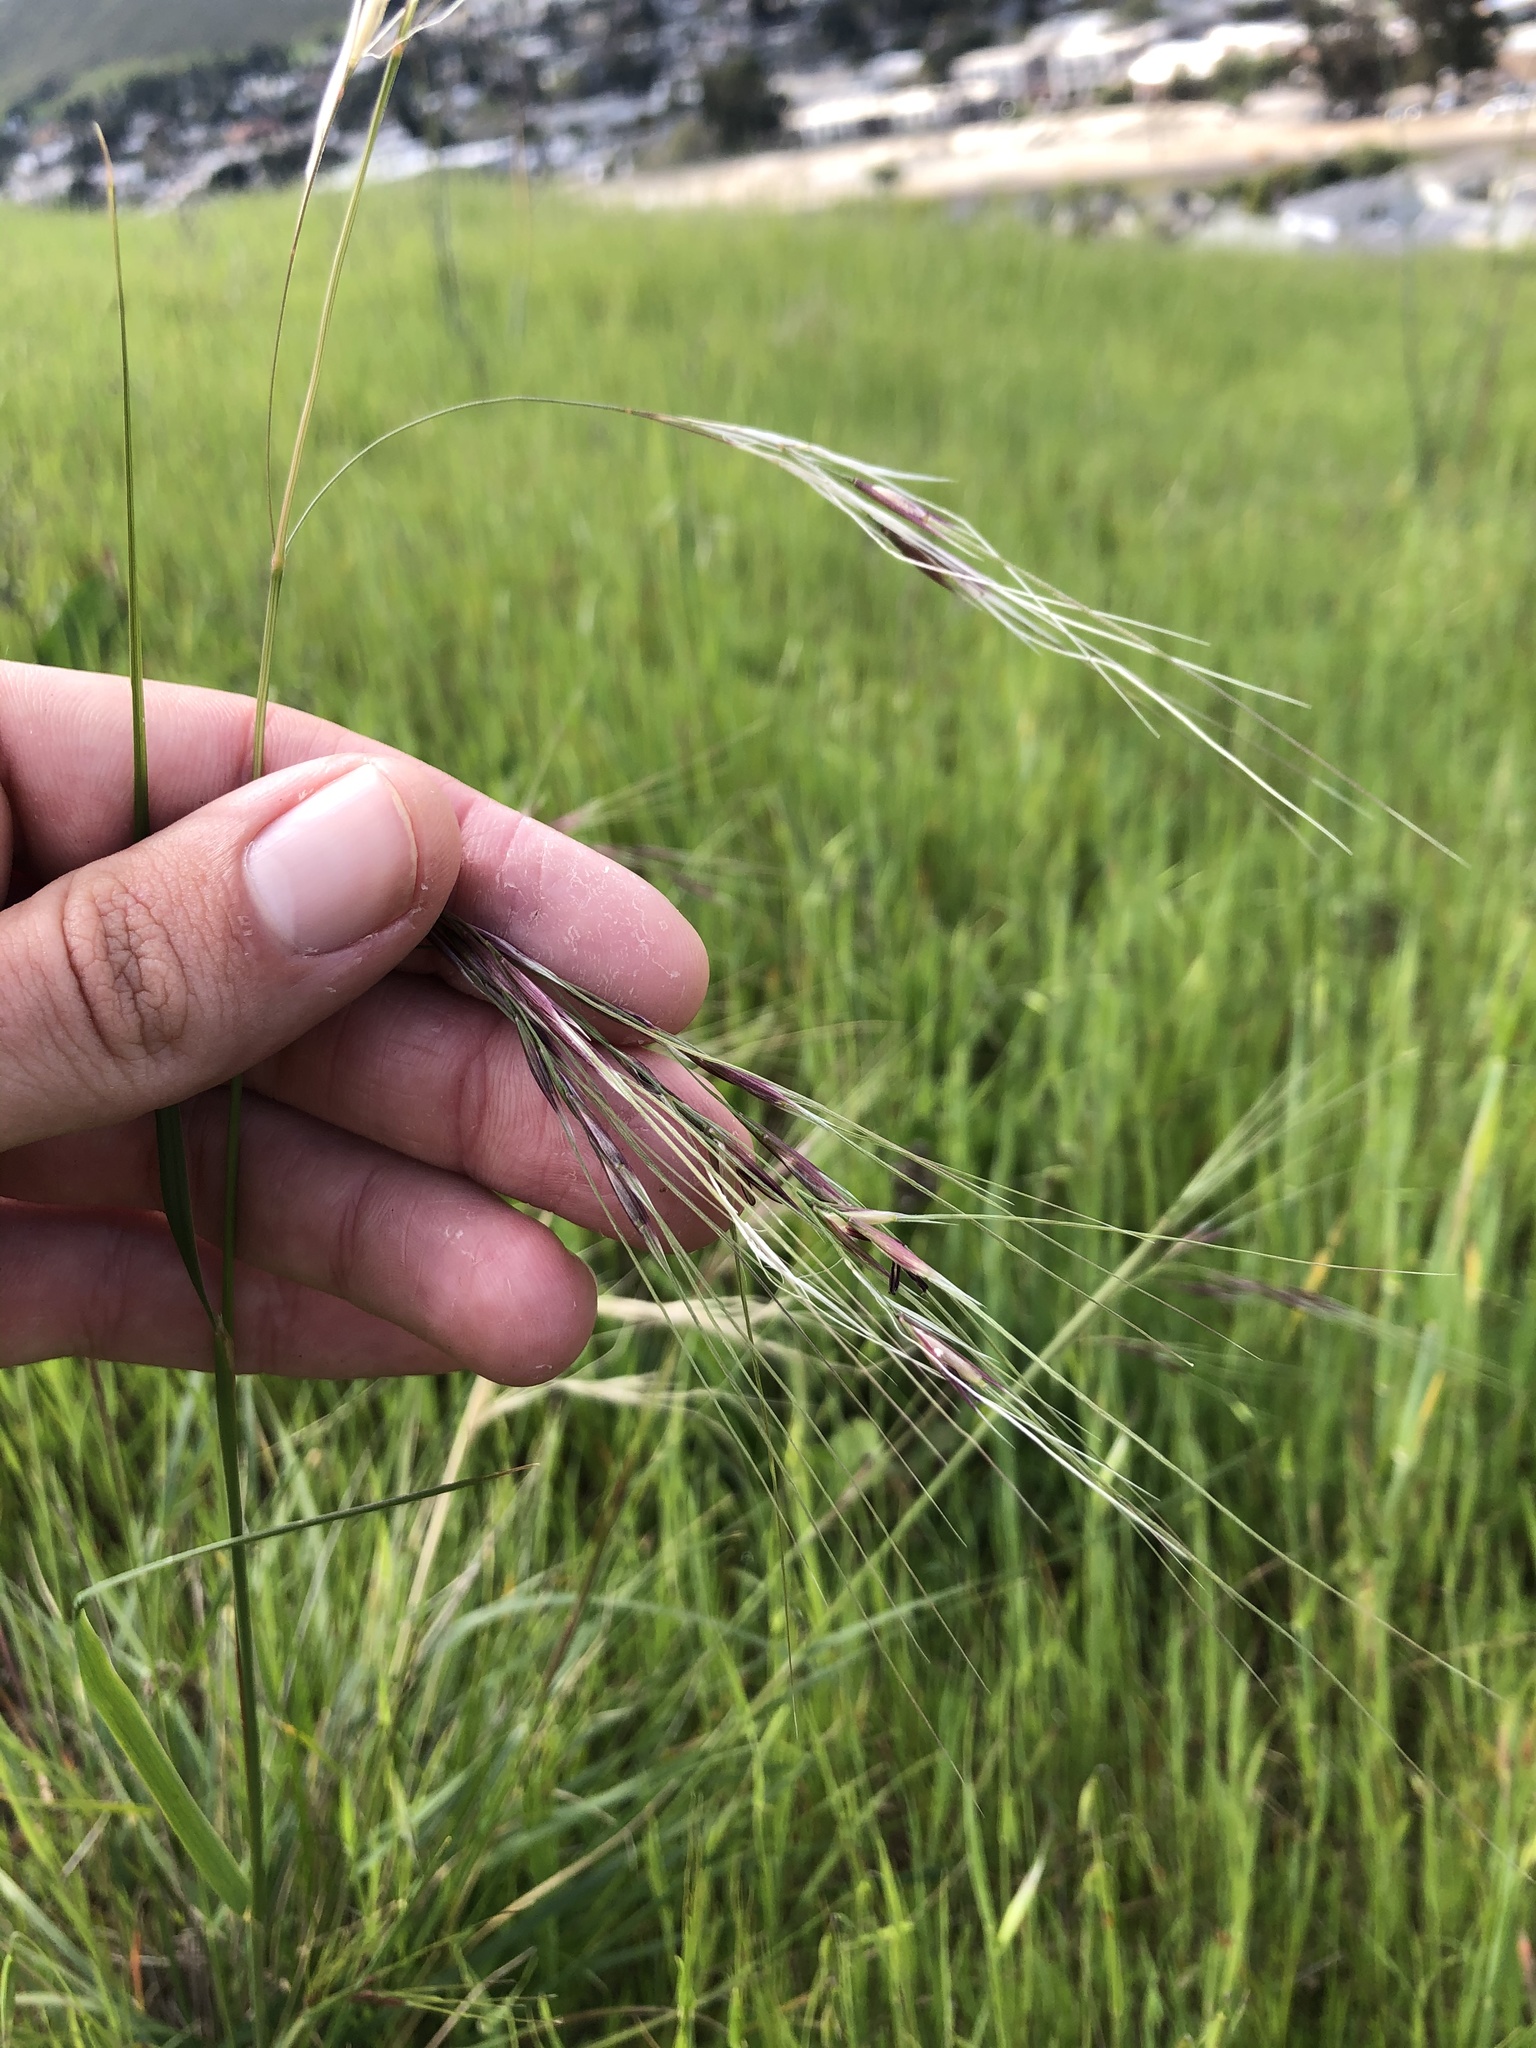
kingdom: Plantae
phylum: Tracheophyta
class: Liliopsida
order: Poales
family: Poaceae
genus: Nassella
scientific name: Nassella pulchra
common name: Purple needlegrass
